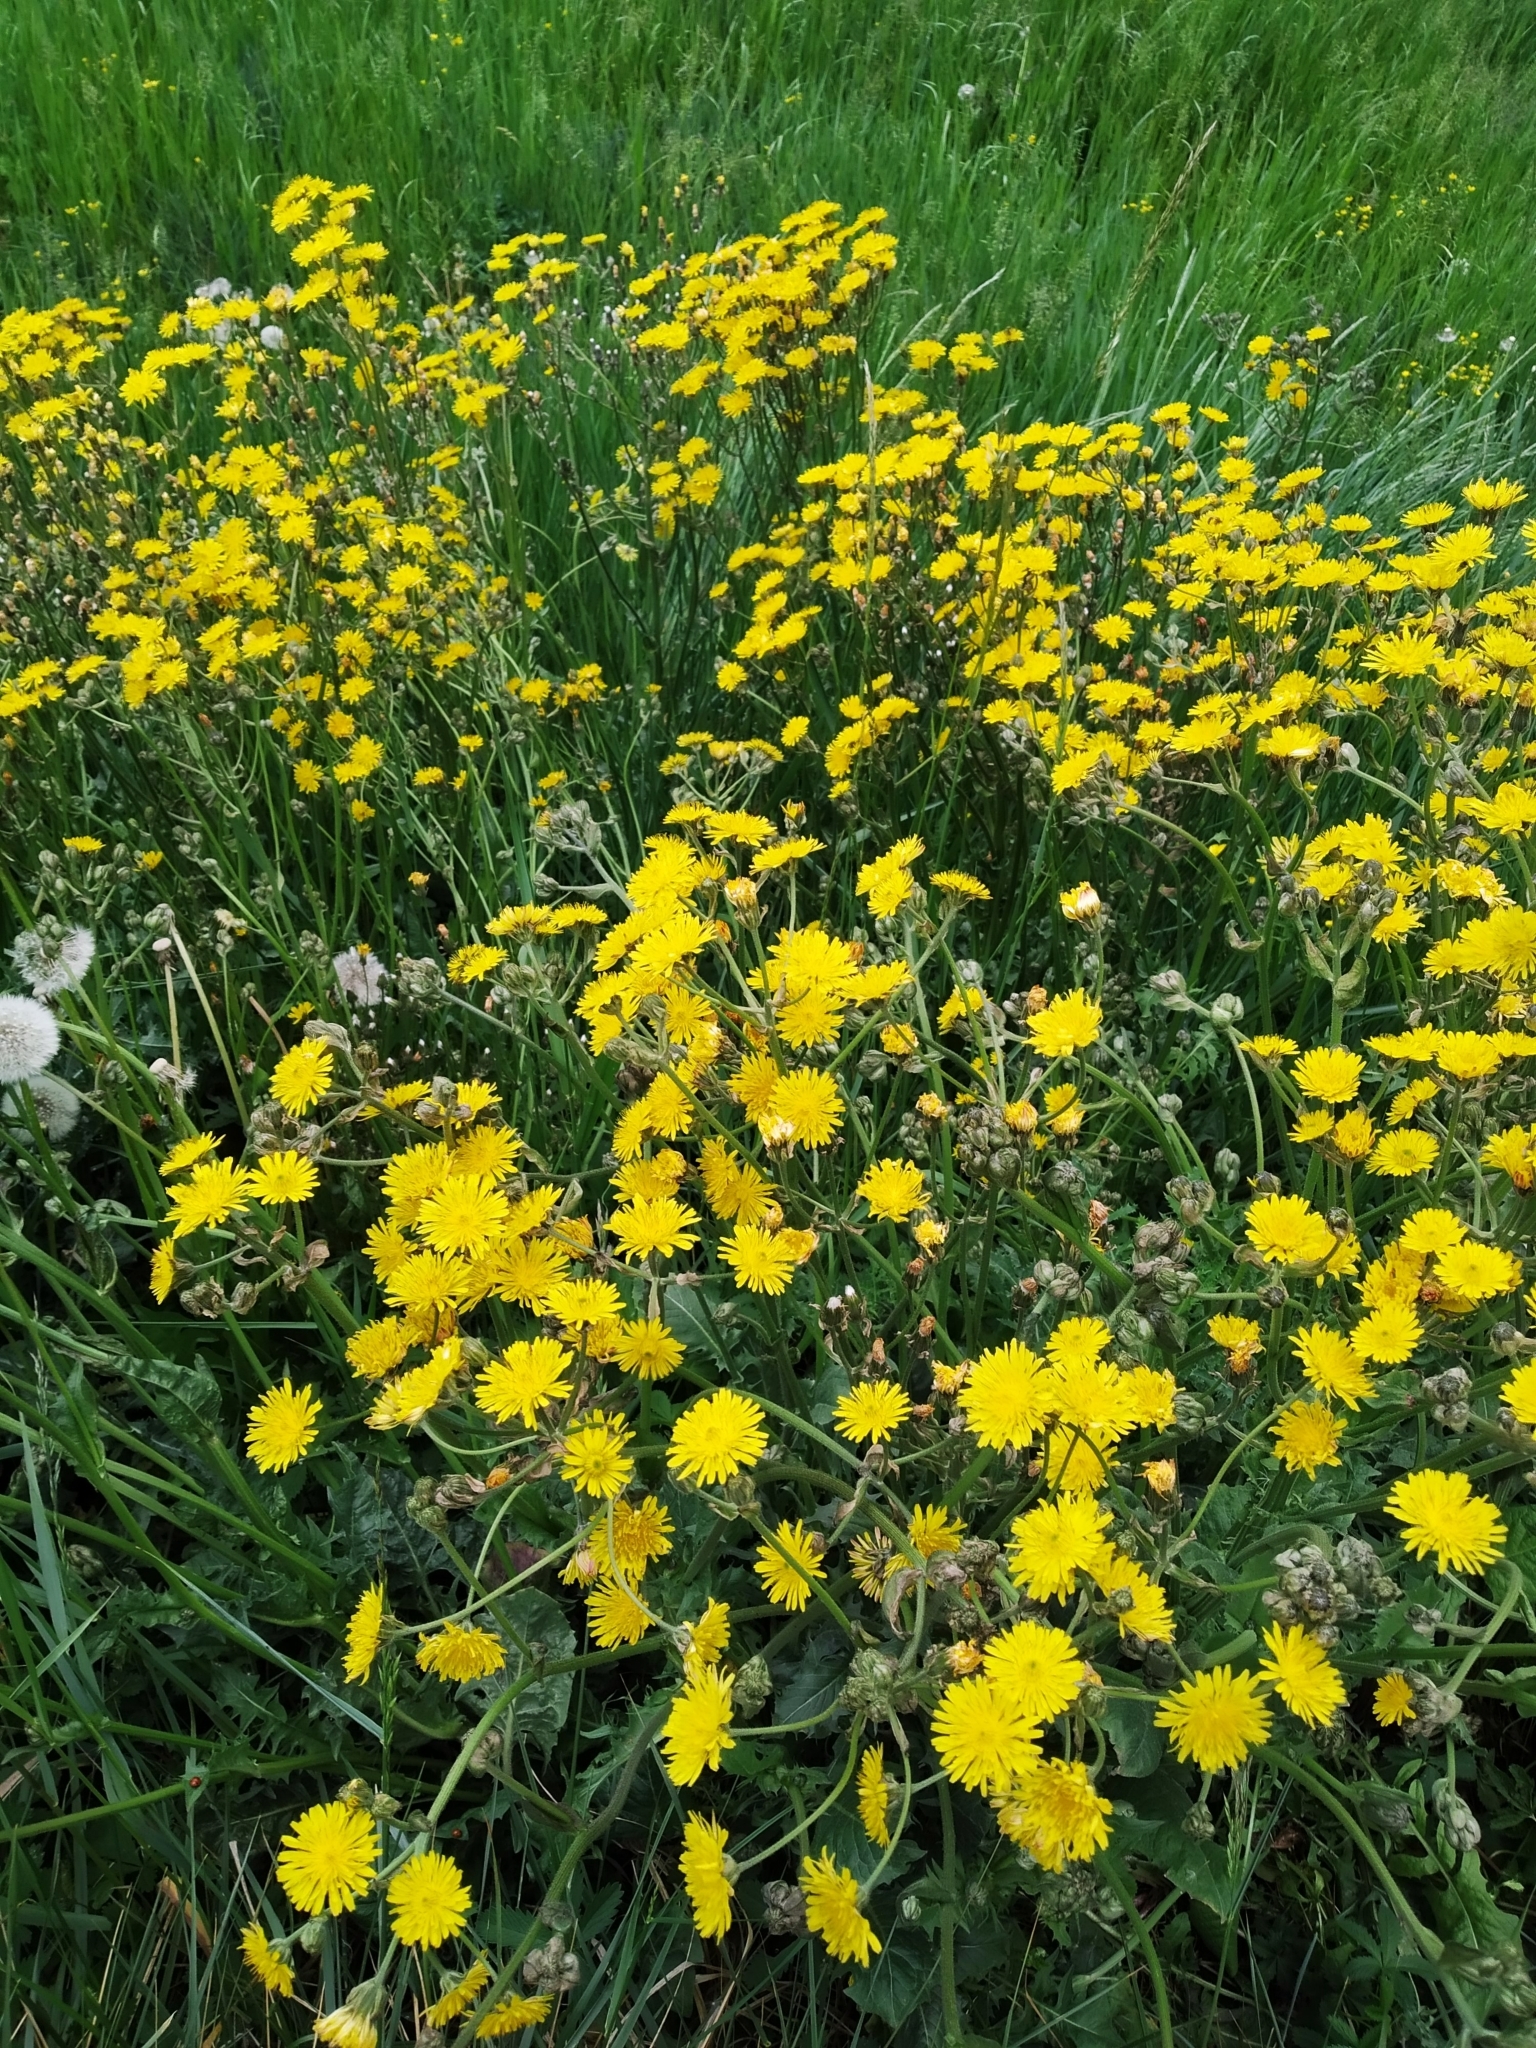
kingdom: Plantae
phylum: Tracheophyta
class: Magnoliopsida
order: Asterales
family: Asteraceae
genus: Crepis
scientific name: Crepis vesicaria
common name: Beaked hawksbeard
